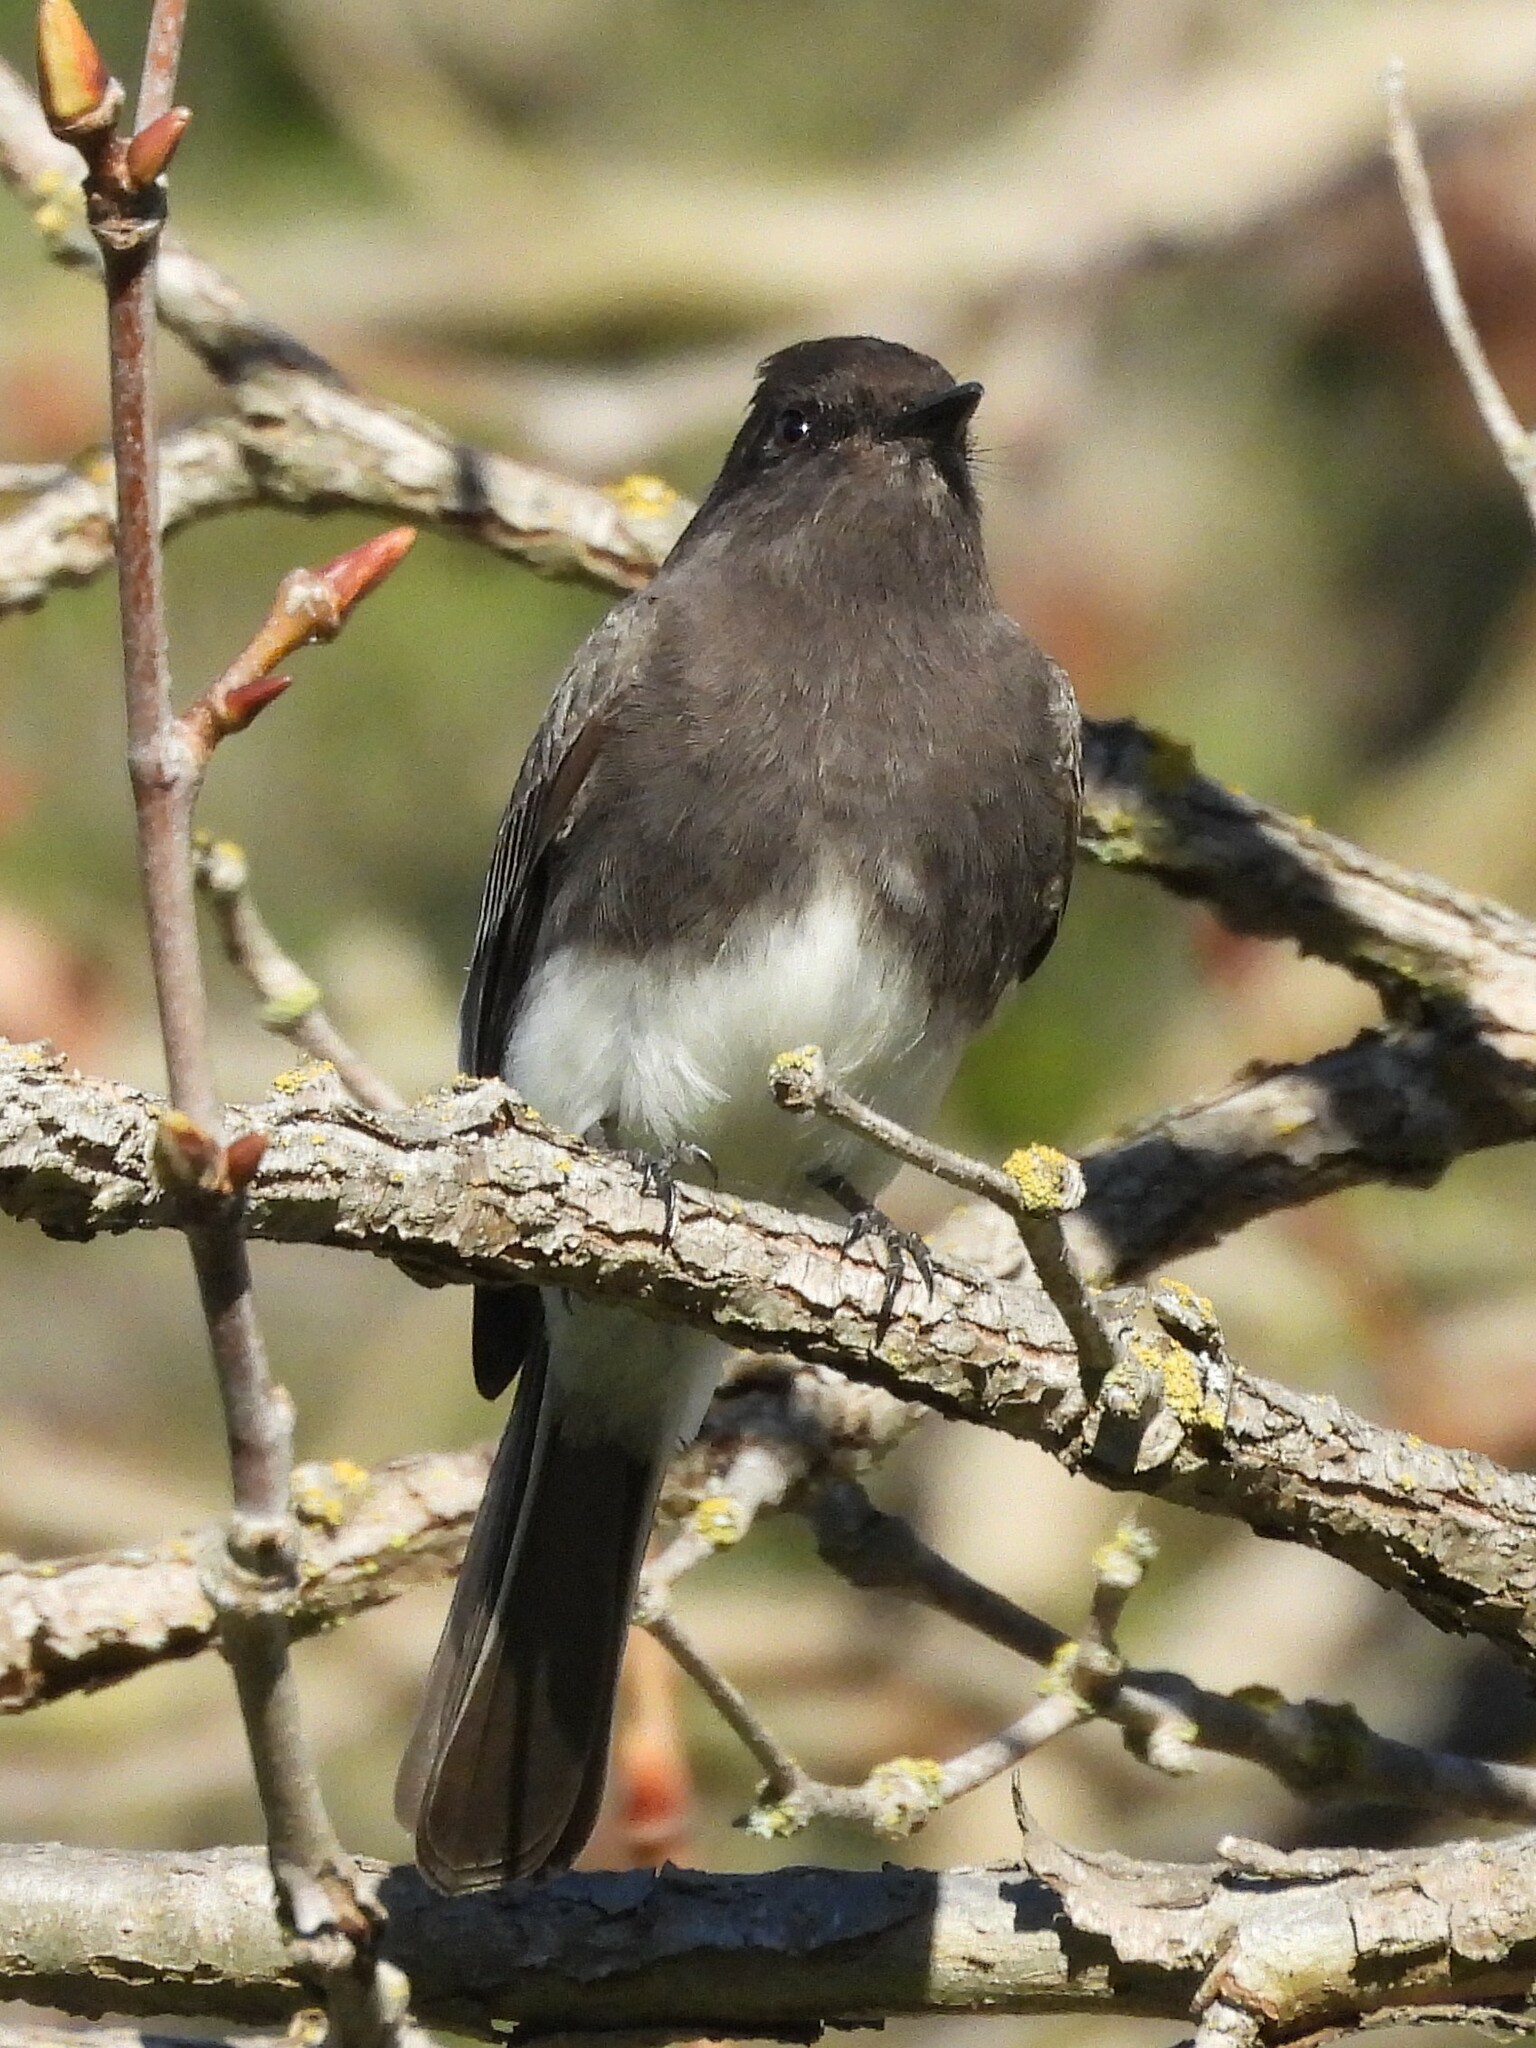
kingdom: Animalia
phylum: Chordata
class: Aves
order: Passeriformes
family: Tyrannidae
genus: Sayornis
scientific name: Sayornis nigricans
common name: Black phoebe
